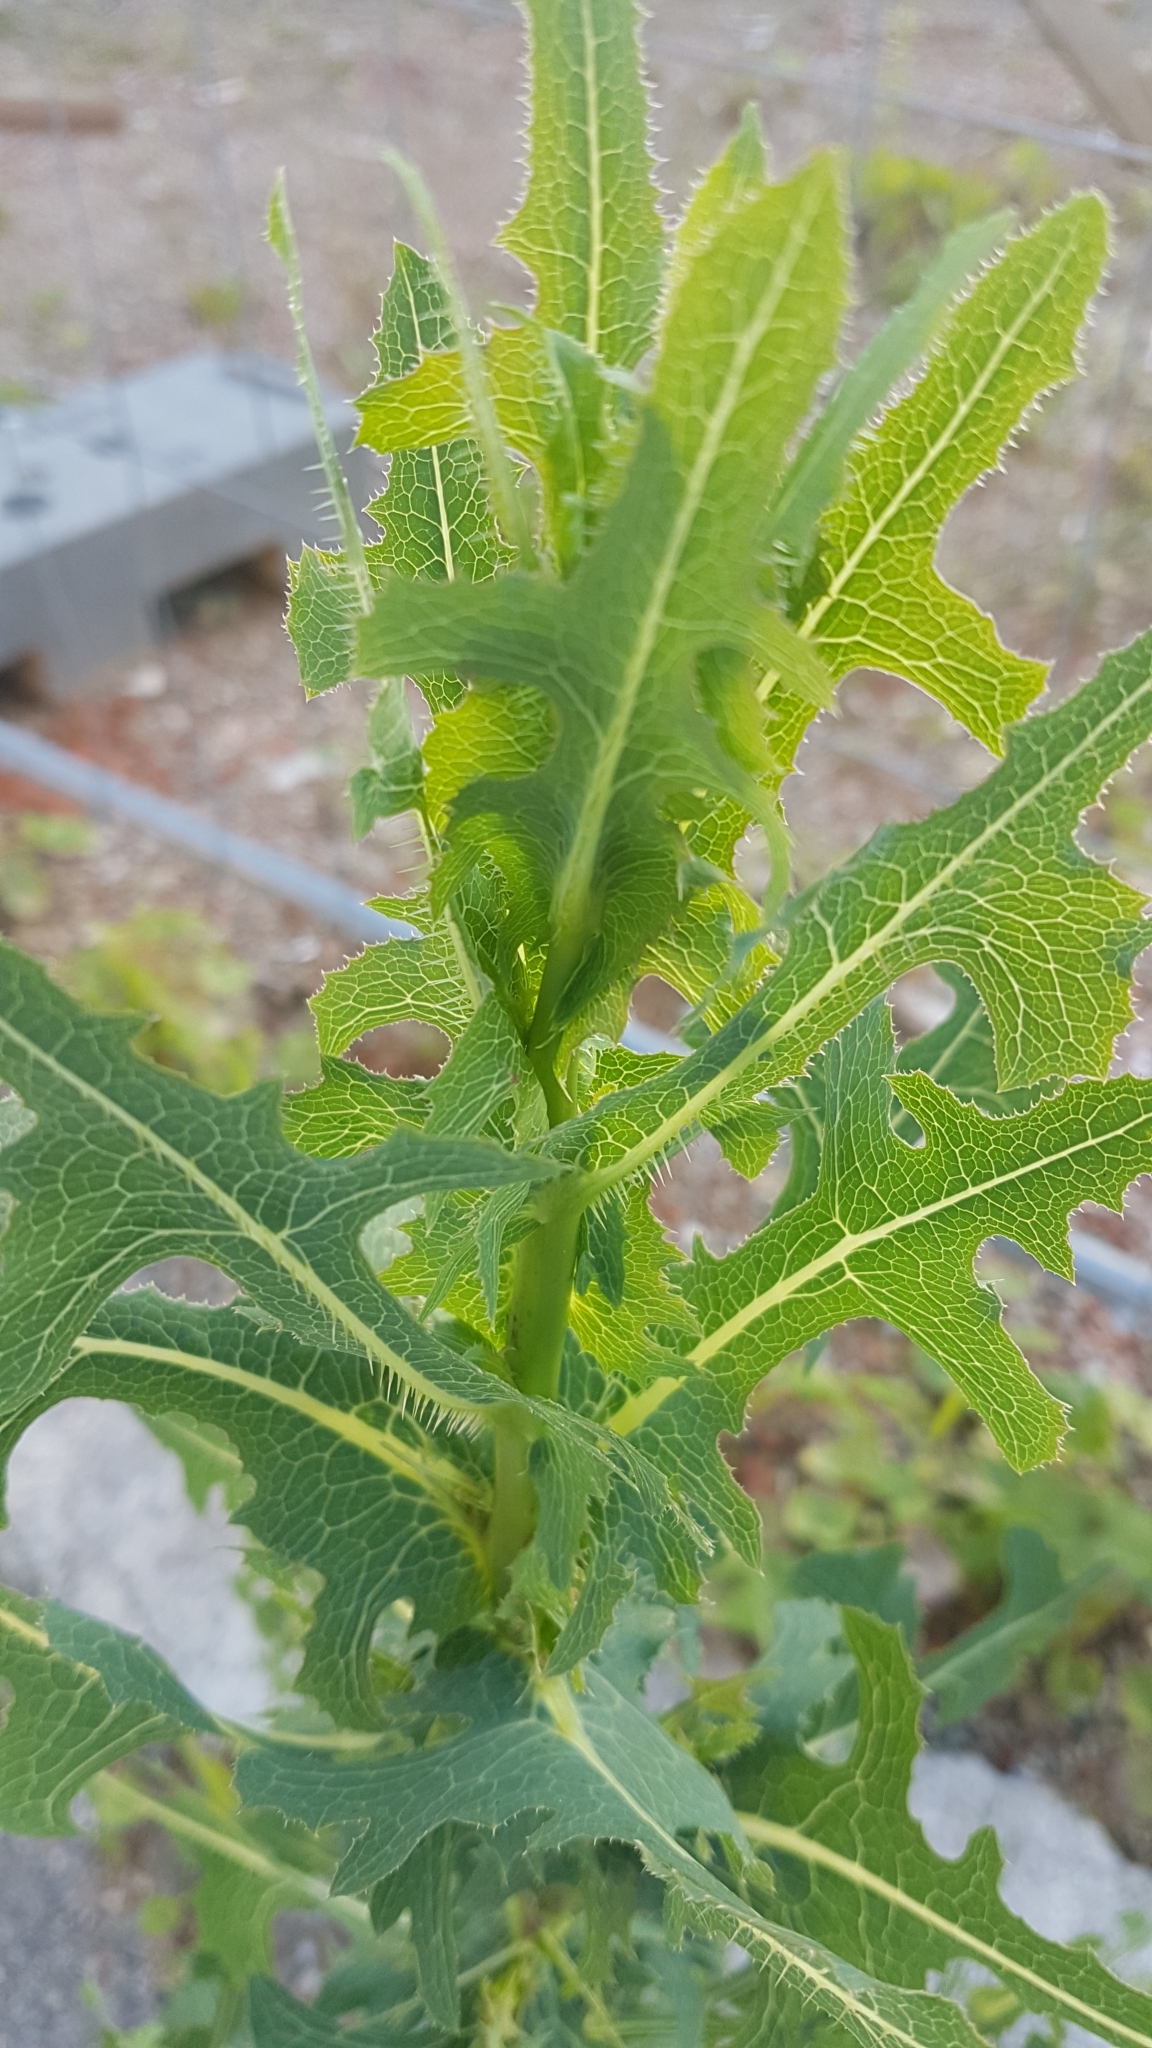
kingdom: Plantae
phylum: Tracheophyta
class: Magnoliopsida
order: Asterales
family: Asteraceae
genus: Lactuca
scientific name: Lactuca serriola
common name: Prickly lettuce
